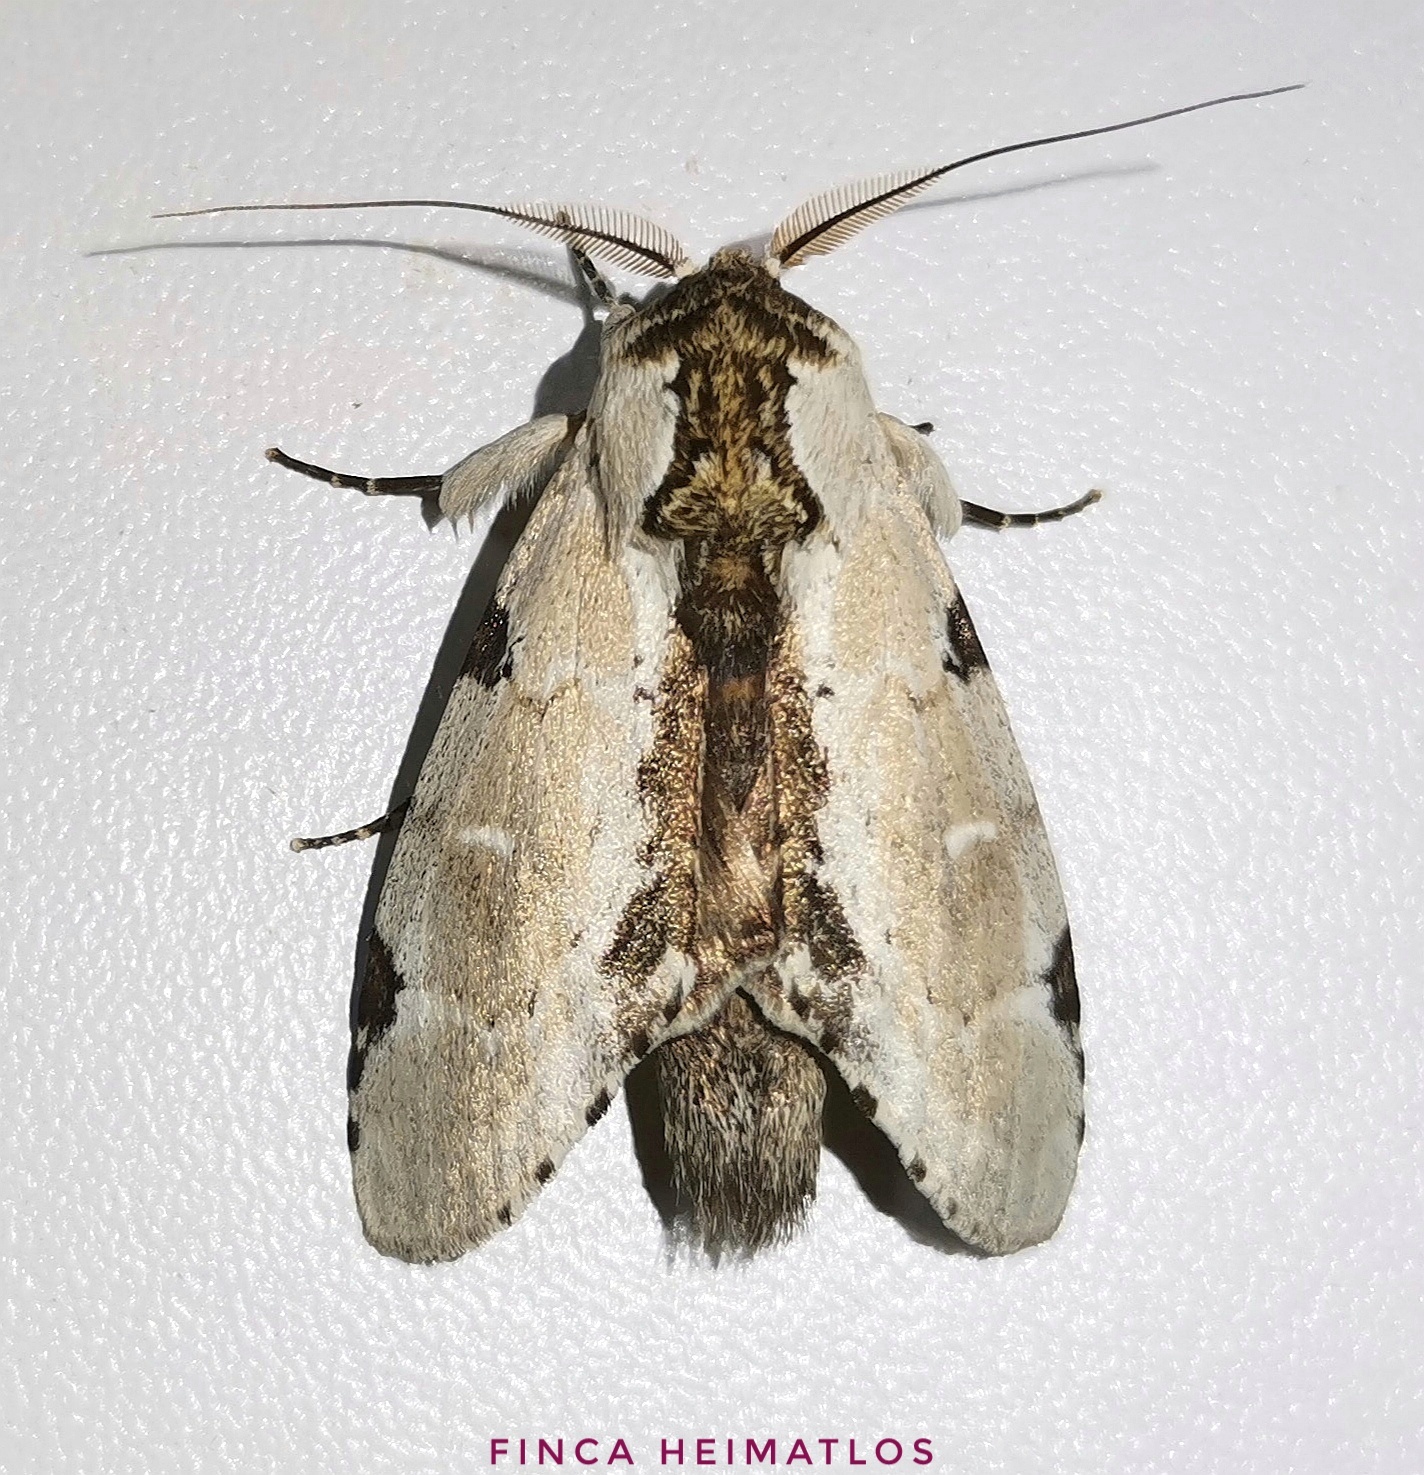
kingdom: Animalia
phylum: Arthropoda
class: Insecta
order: Lepidoptera
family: Notodontidae
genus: Malocampa
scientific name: Malocampa bolivari
